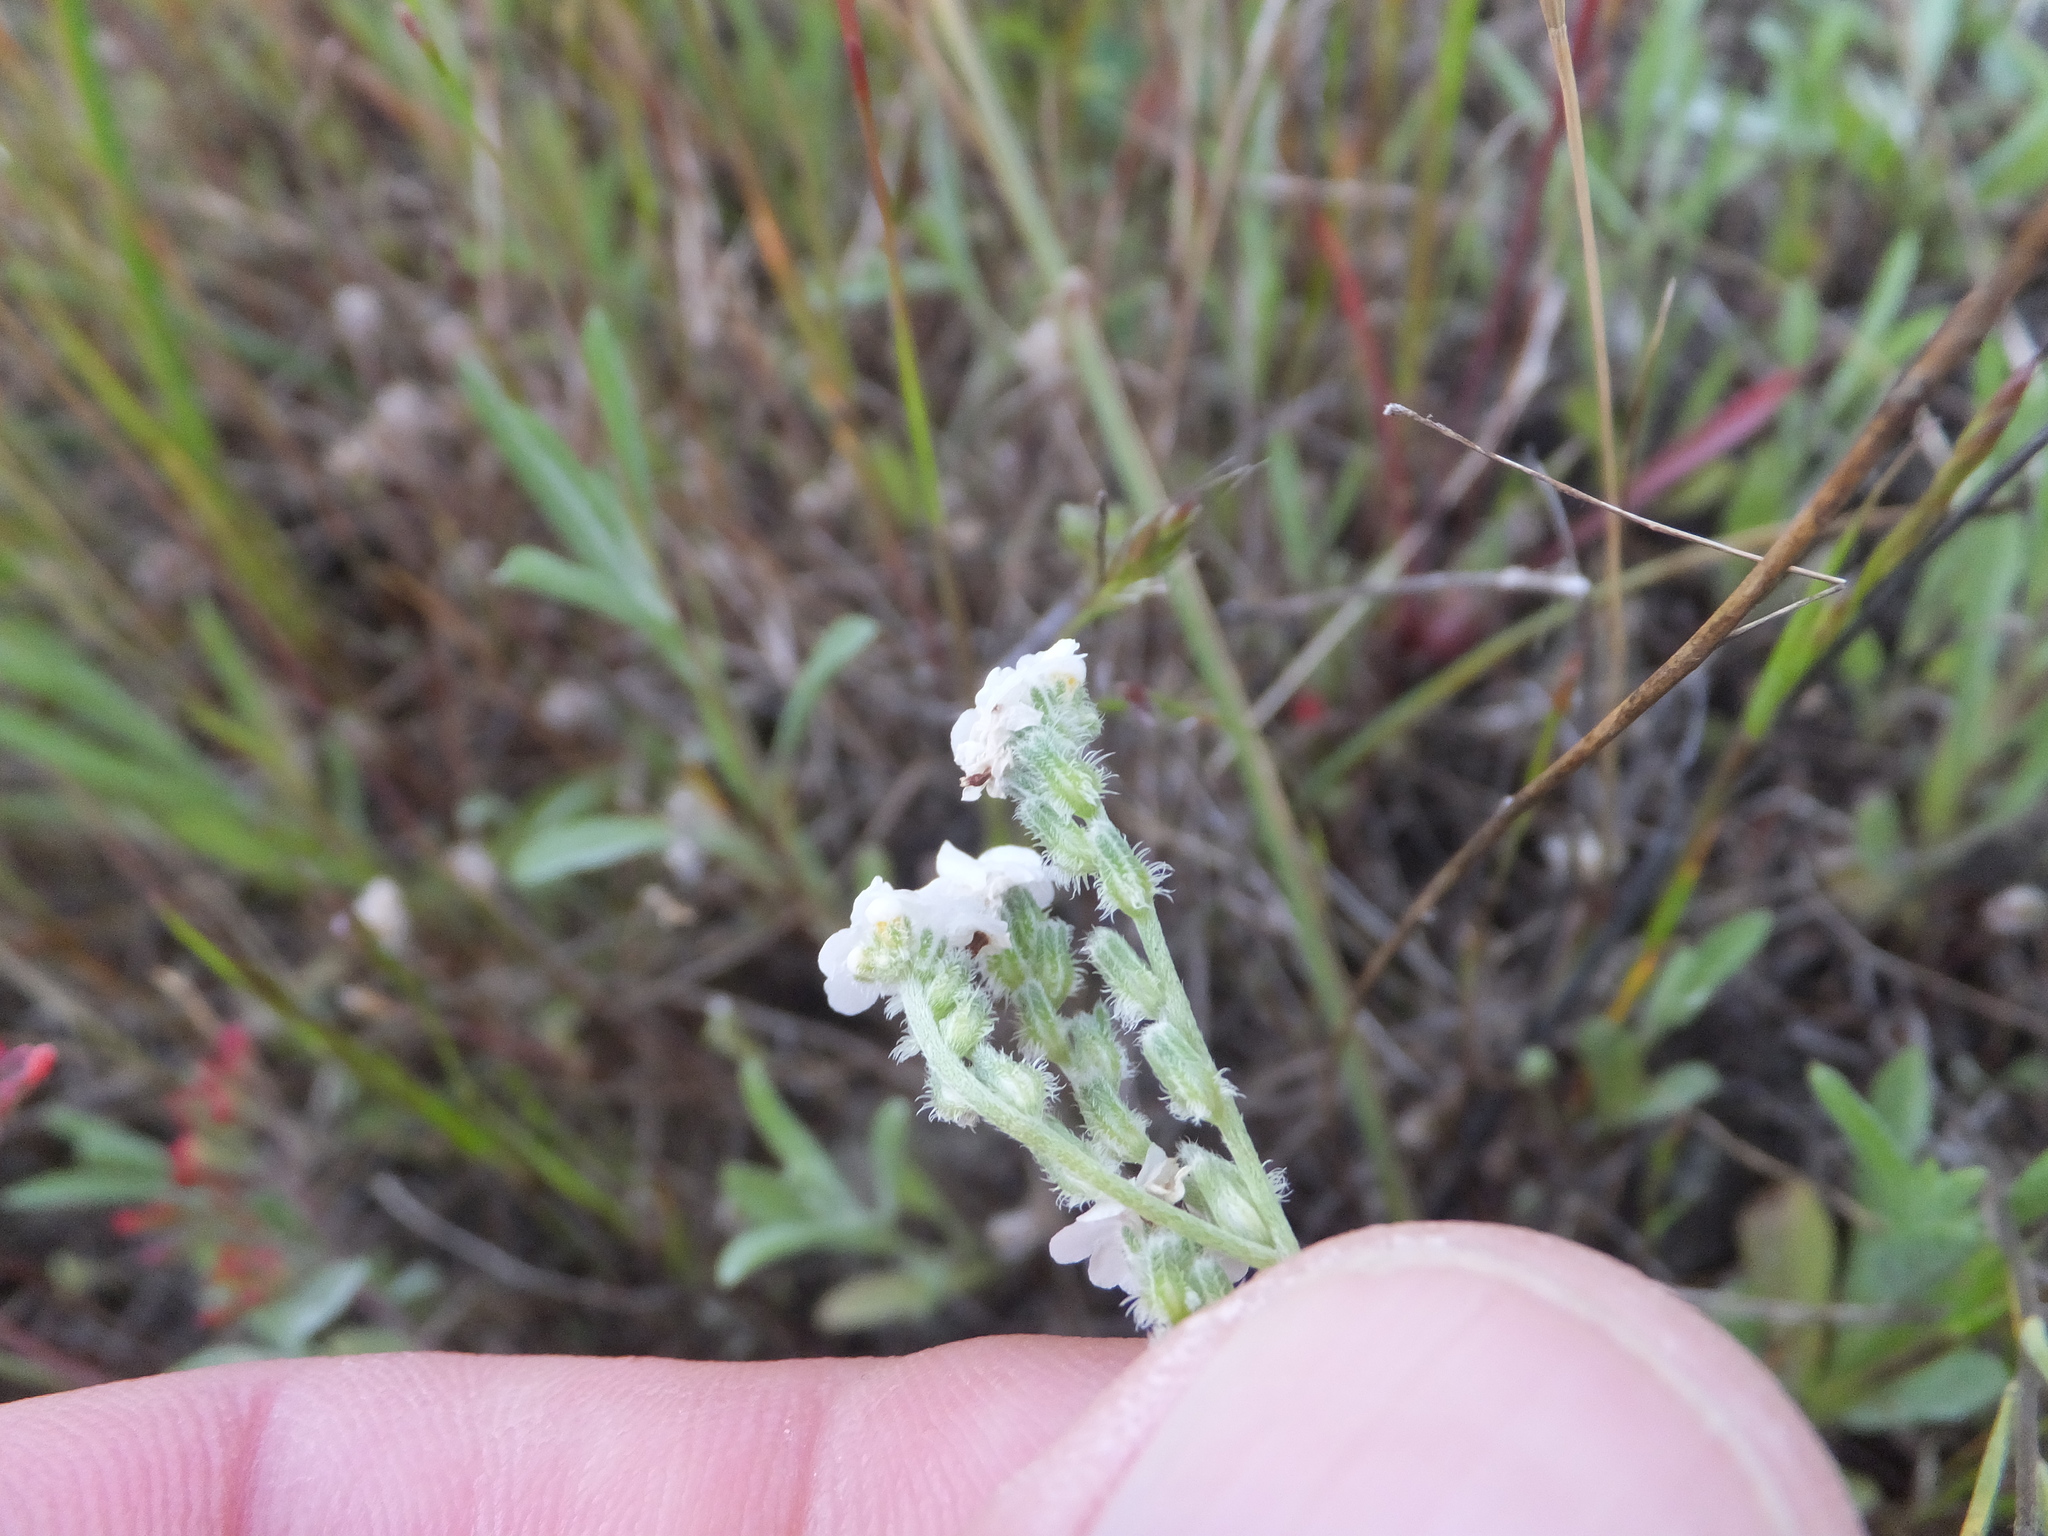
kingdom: Plantae
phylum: Tracheophyta
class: Magnoliopsida
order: Boraginales
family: Boraginaceae
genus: Cryptantha
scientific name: Cryptantha flaccida
